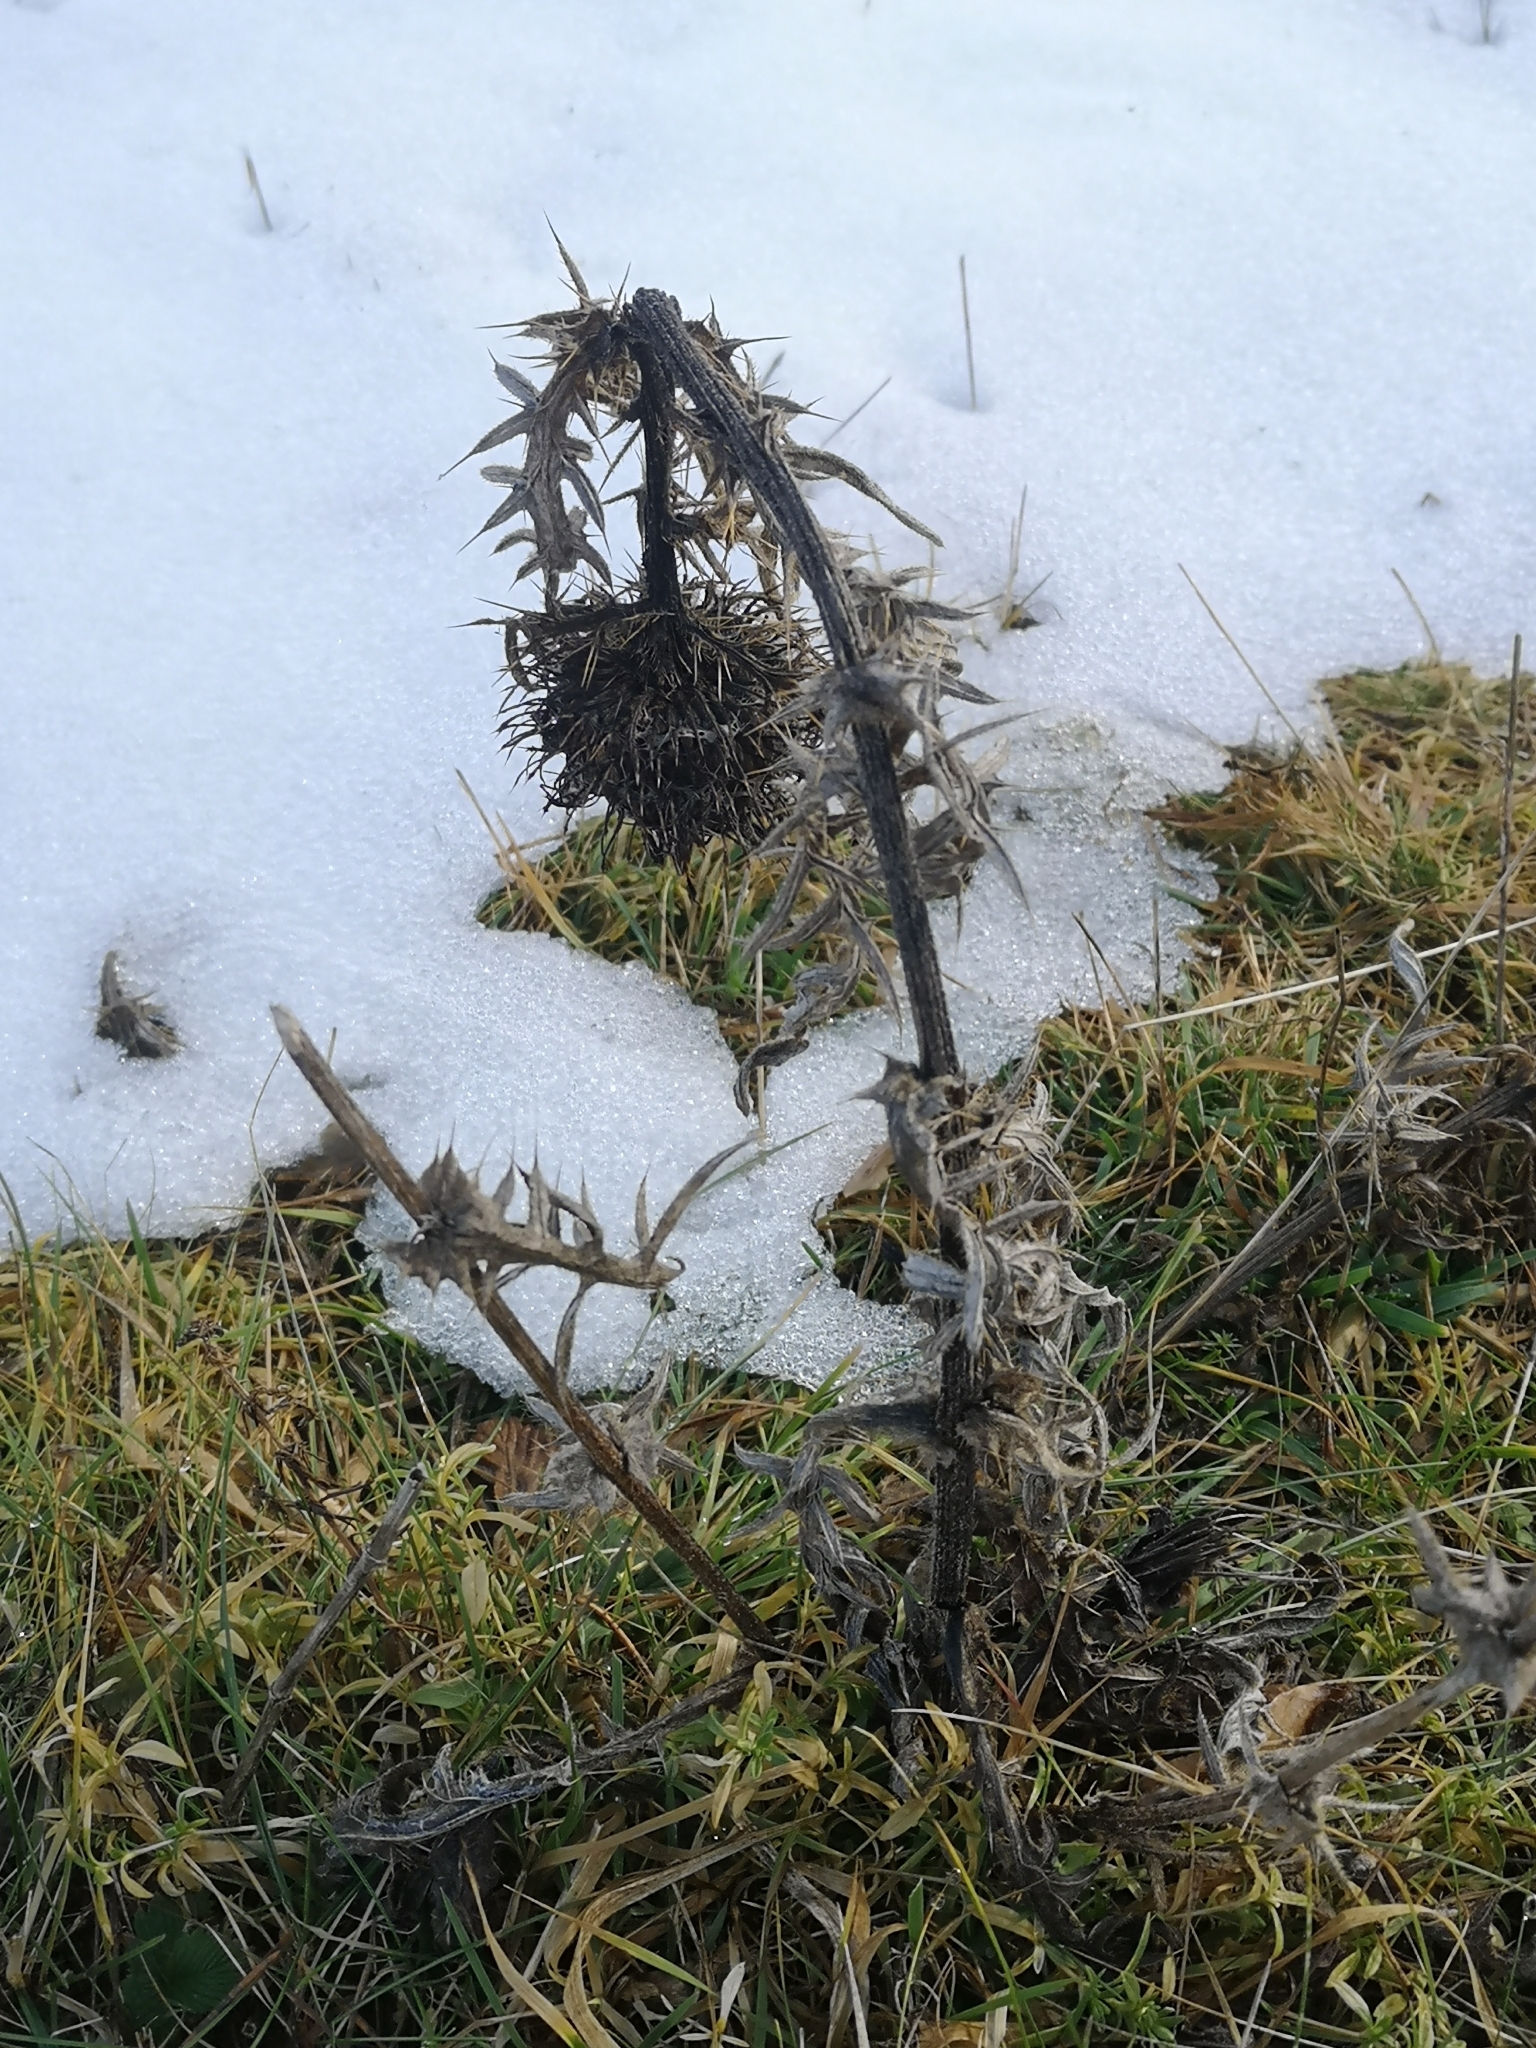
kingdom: Plantae
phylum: Tracheophyta
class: Magnoliopsida
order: Asterales
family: Asteraceae
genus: Carlina
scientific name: Carlina vulgaris
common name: Carline thistle
